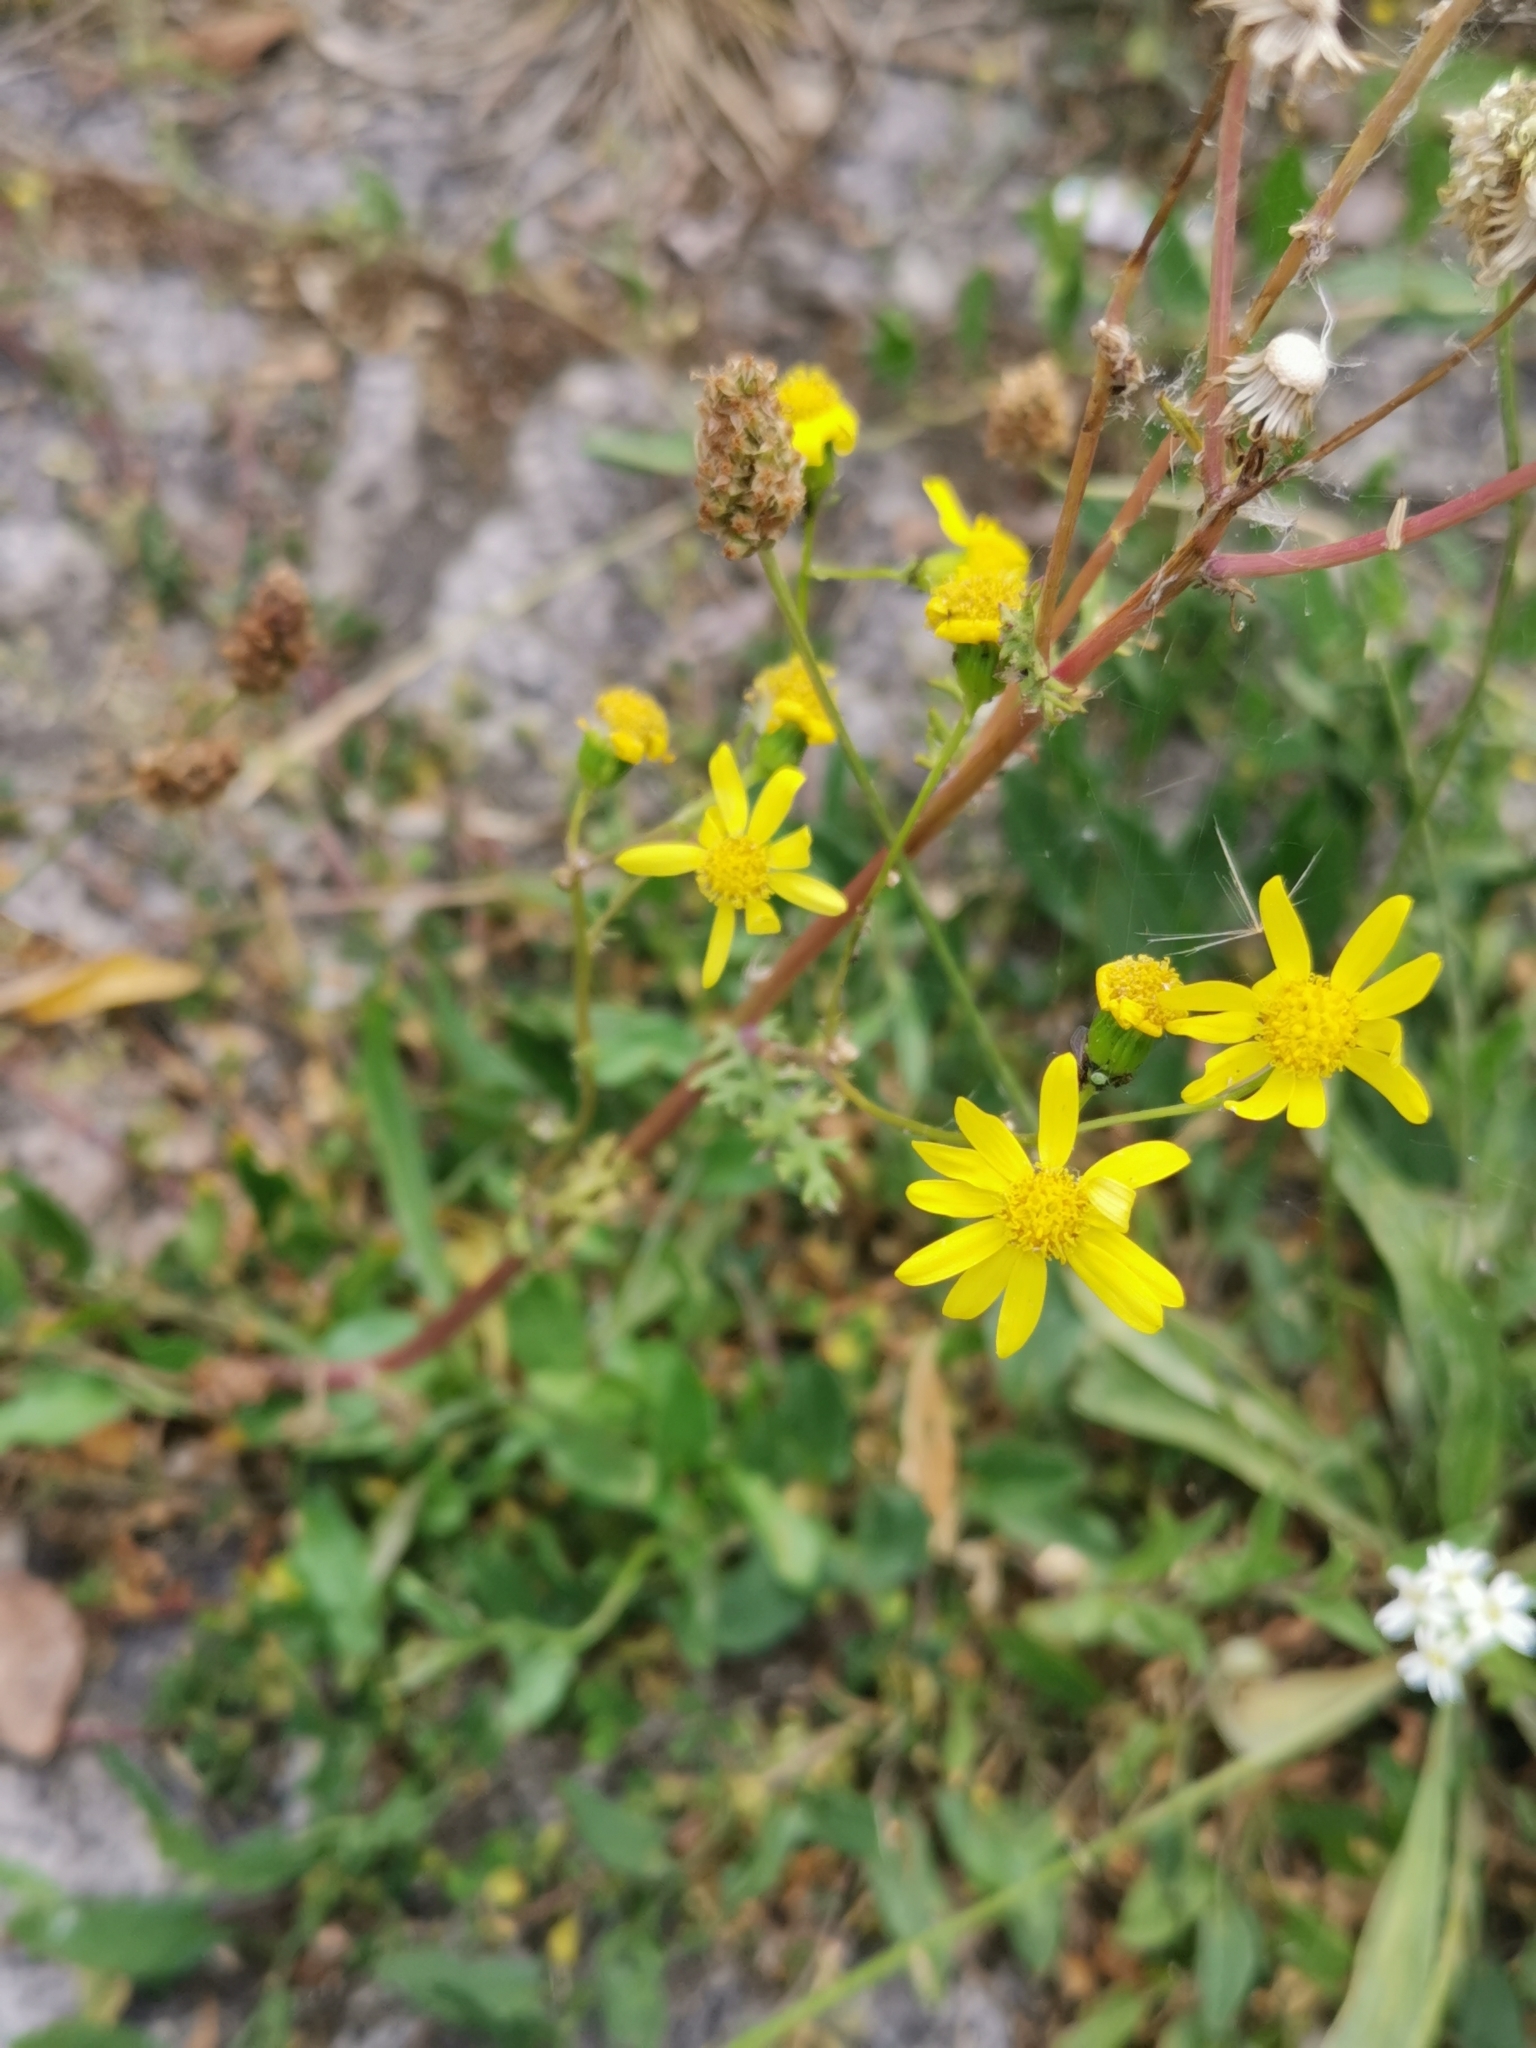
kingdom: Plantae
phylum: Tracheophyta
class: Magnoliopsida
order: Asterales
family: Asteraceae
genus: Senecio
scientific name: Senecio vernalis
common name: Eastern groundsel
